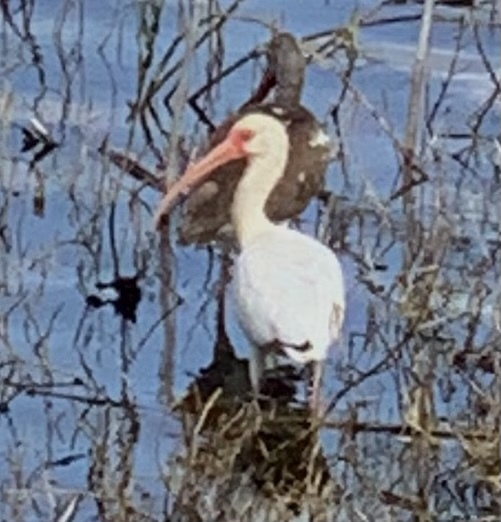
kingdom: Animalia
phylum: Chordata
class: Aves
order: Pelecaniformes
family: Threskiornithidae
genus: Eudocimus
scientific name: Eudocimus albus
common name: White ibis
